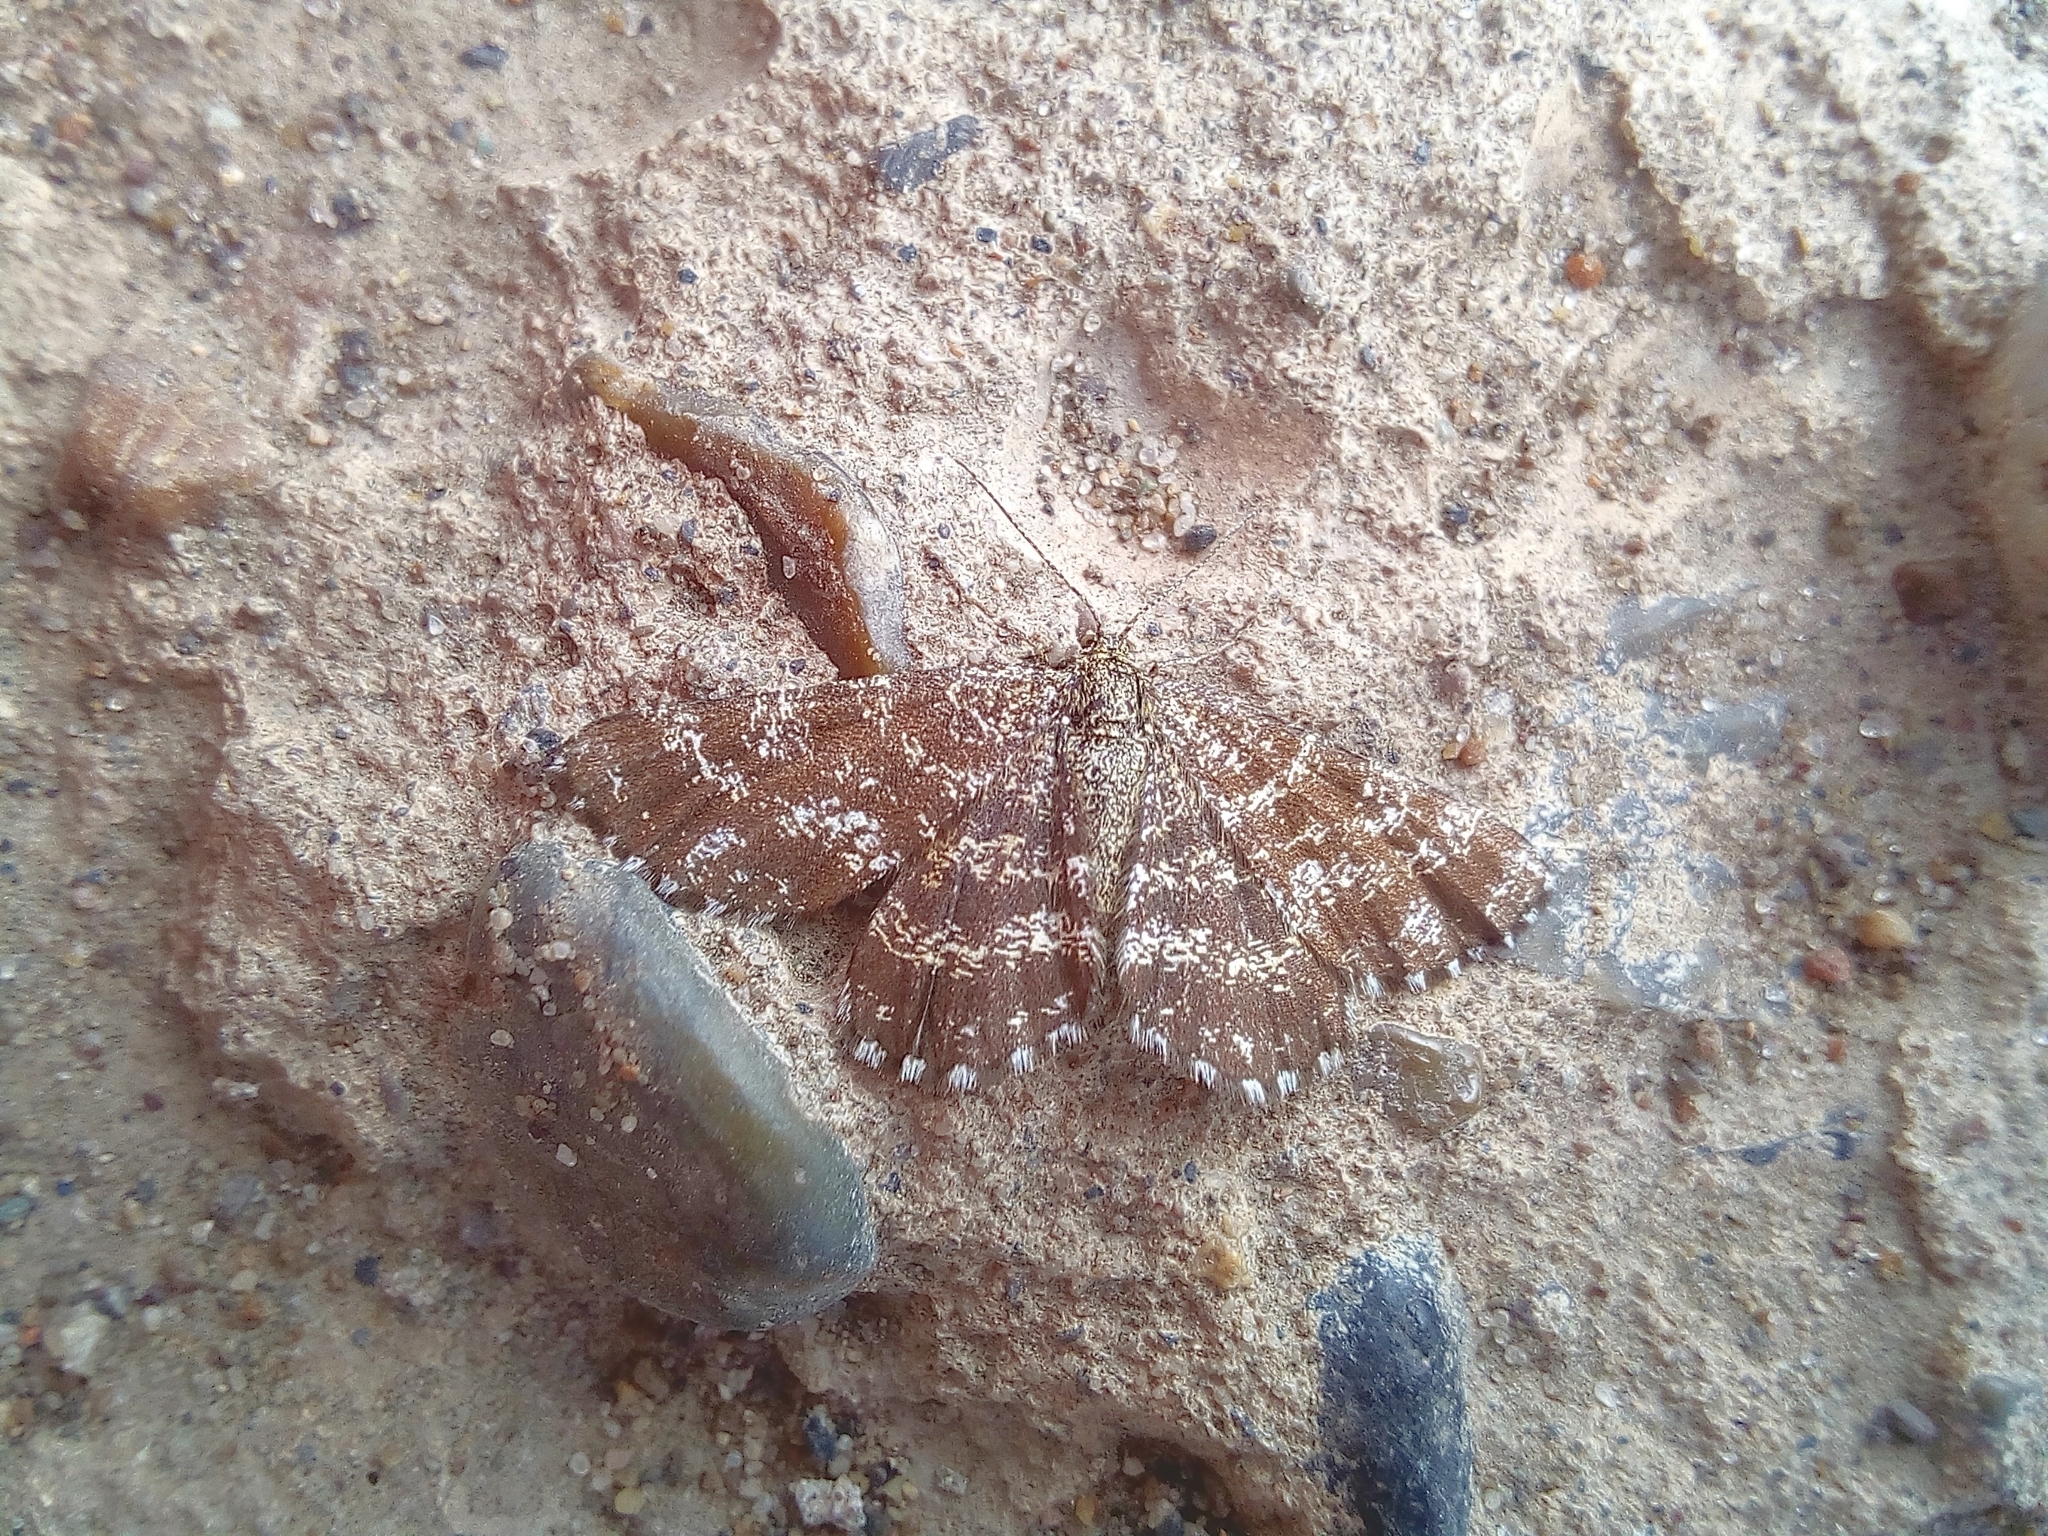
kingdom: Animalia
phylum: Arthropoda
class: Insecta
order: Lepidoptera
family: Geometridae
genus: Ematurga
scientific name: Ematurga atomaria
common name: Common heath
